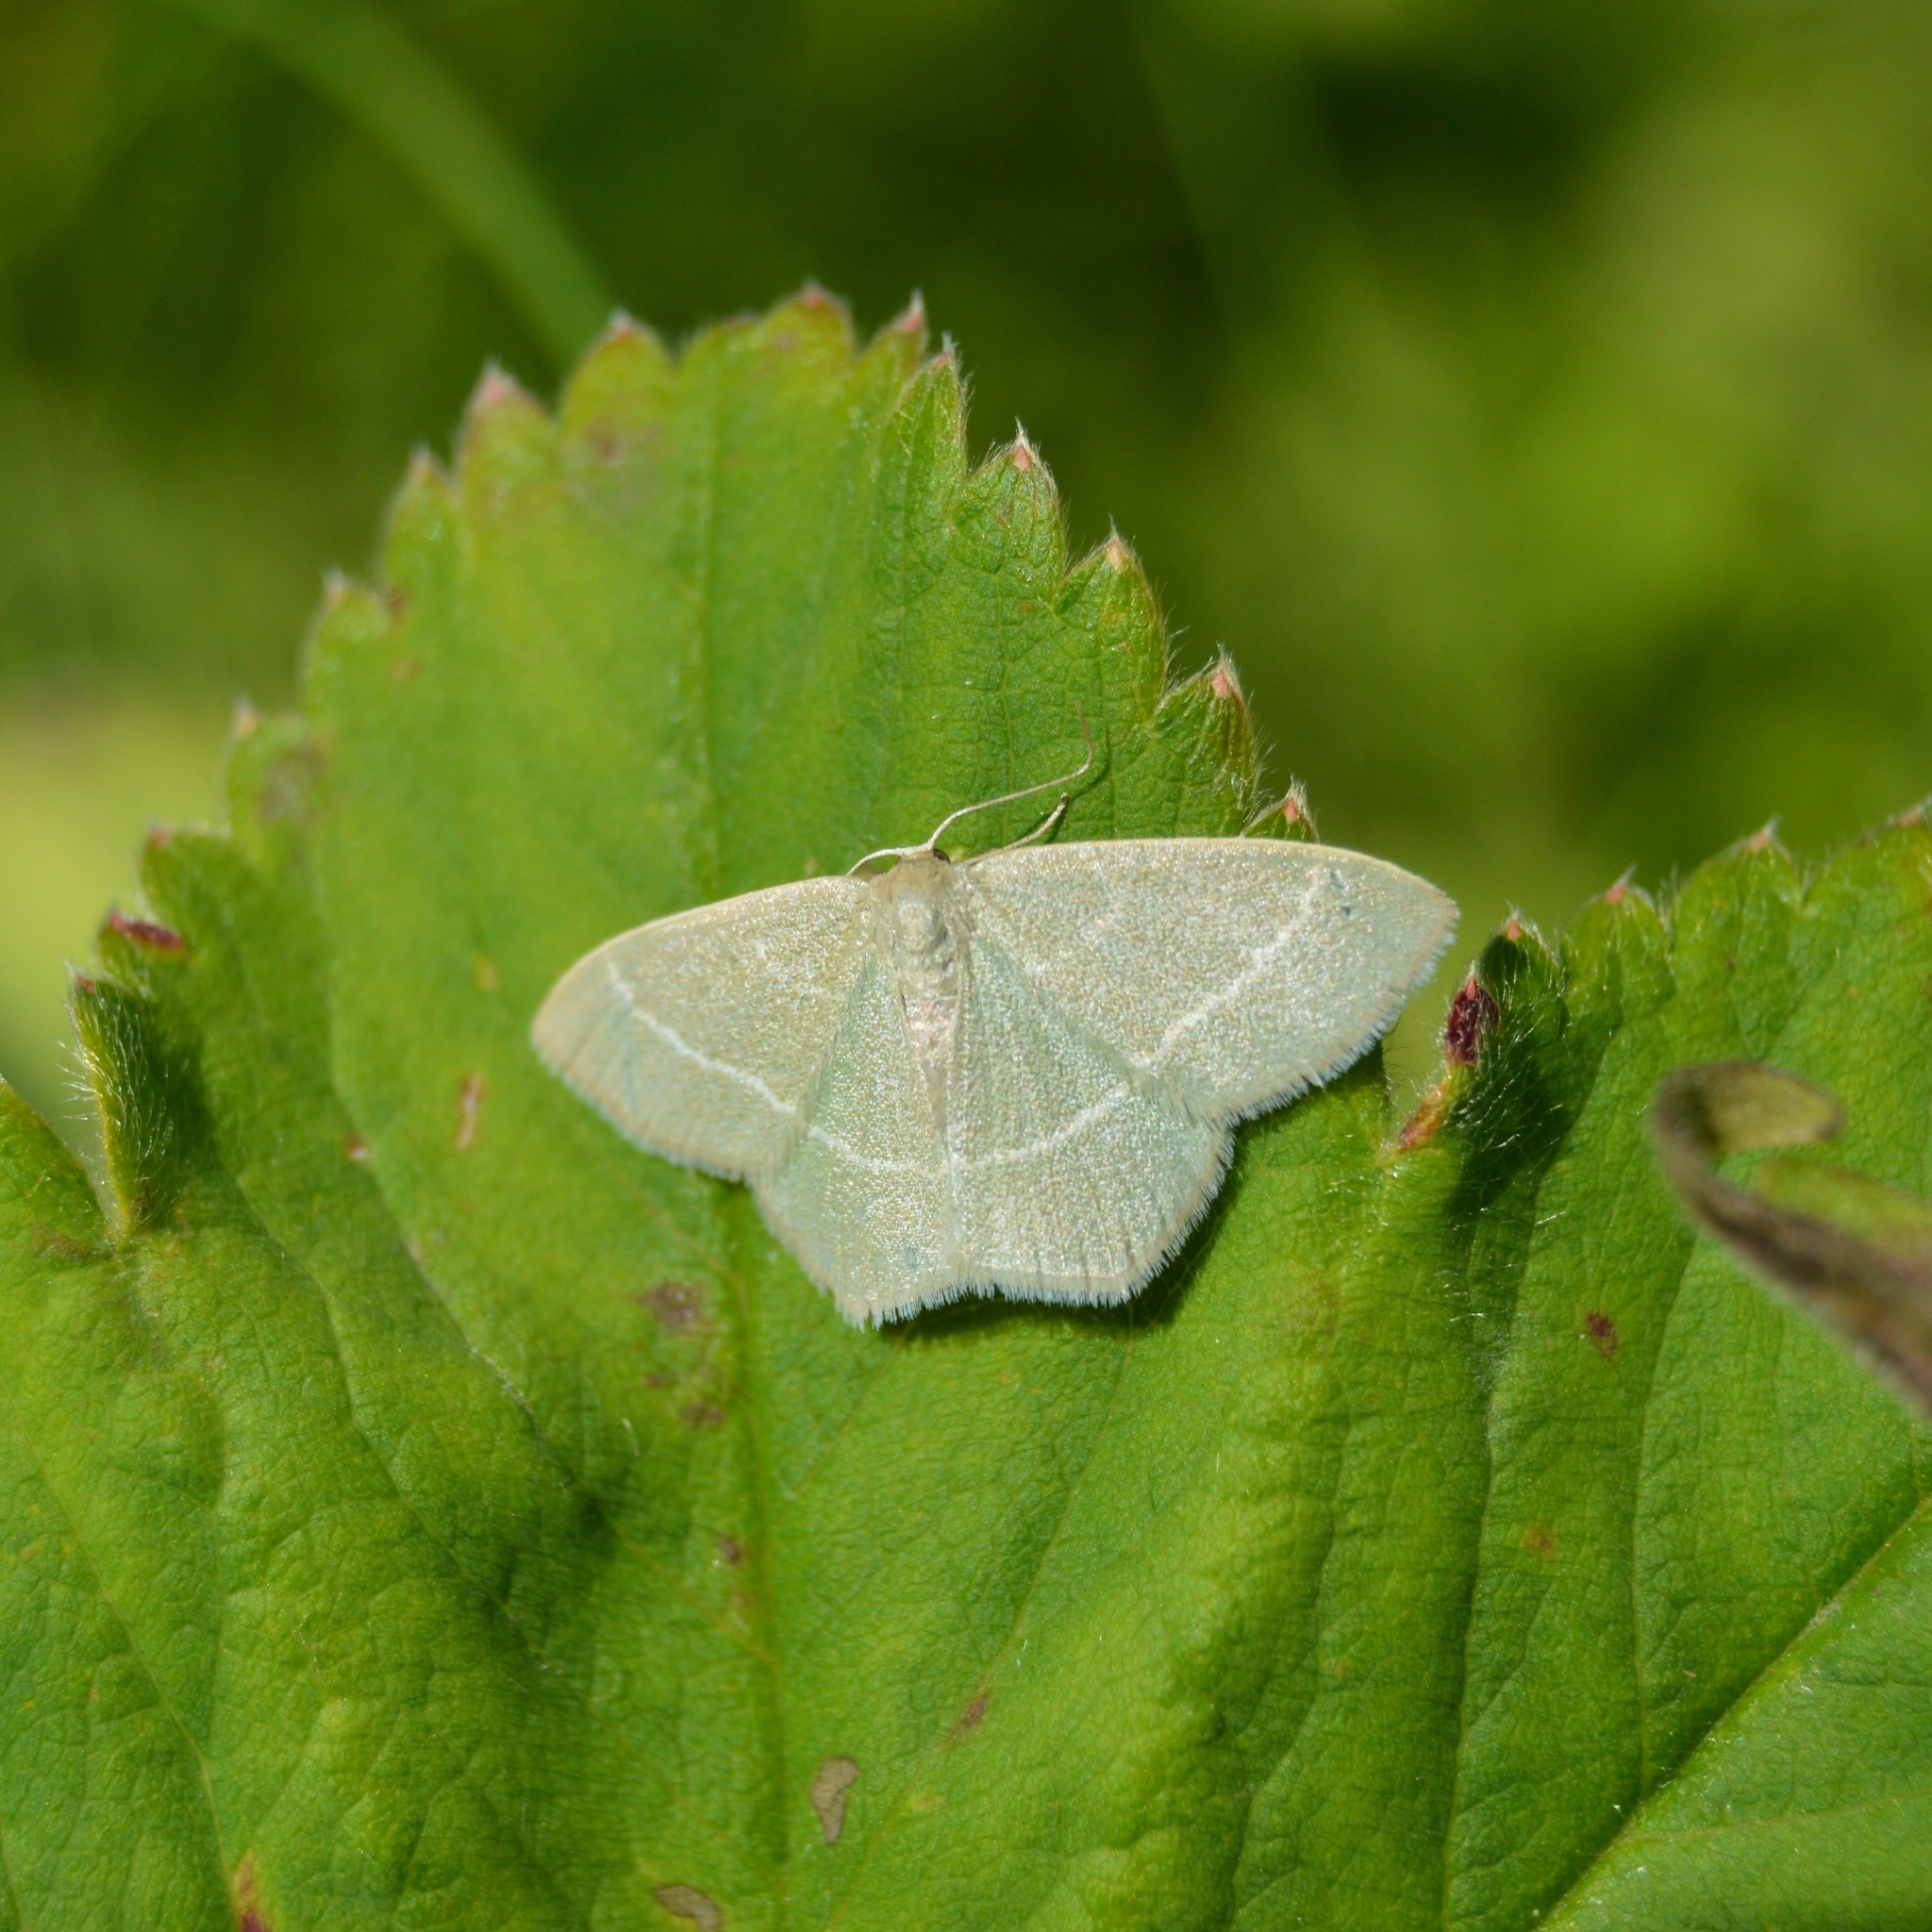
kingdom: Animalia
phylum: Arthropoda
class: Insecta
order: Lepidoptera
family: Geometridae
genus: Chlorissa
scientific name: Chlorissa viridata
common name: Small grass emerald
